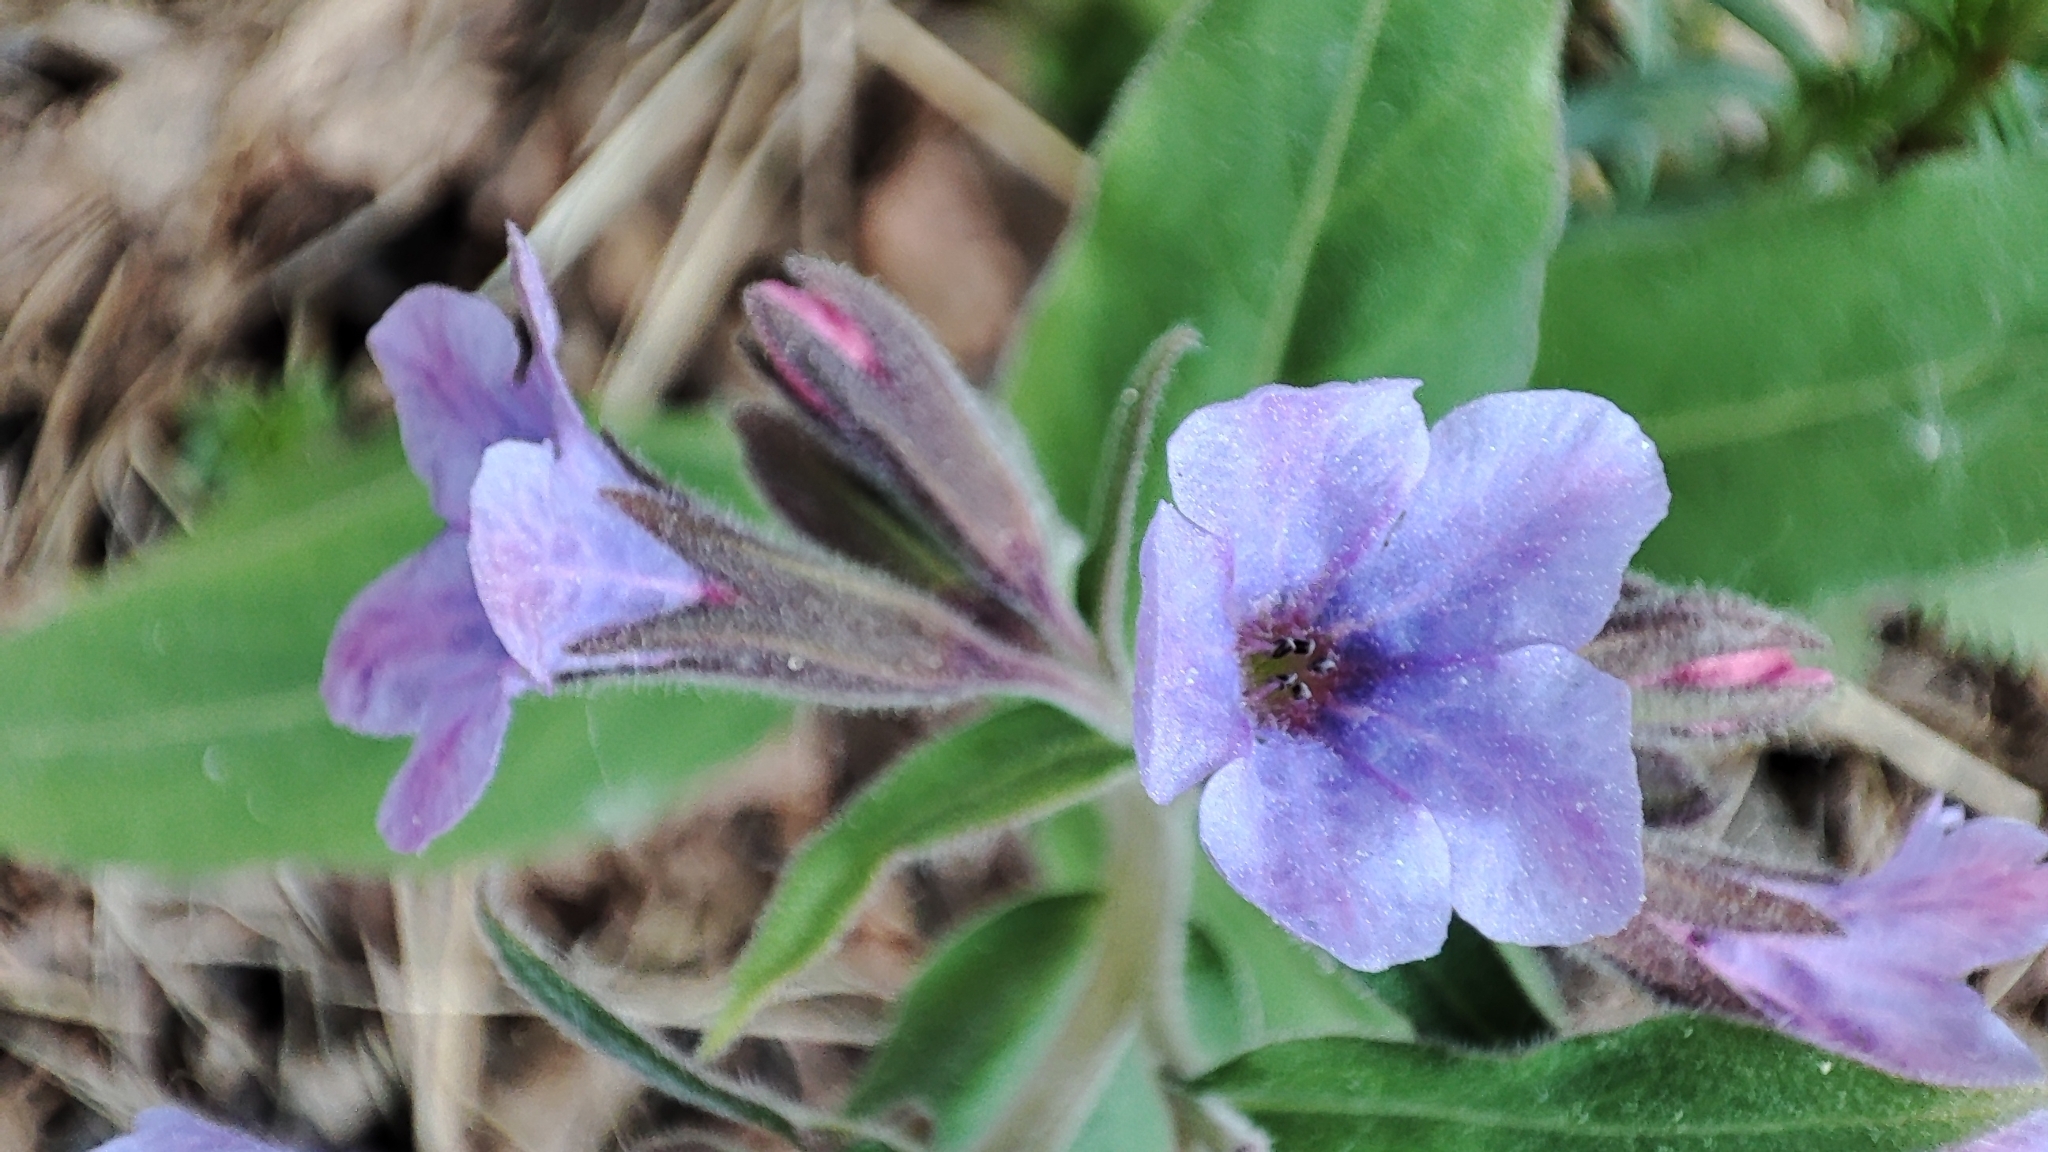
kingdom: Plantae
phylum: Tracheophyta
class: Magnoliopsida
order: Boraginales
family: Boraginaceae
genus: Pulmonaria
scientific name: Pulmonaria mollis
